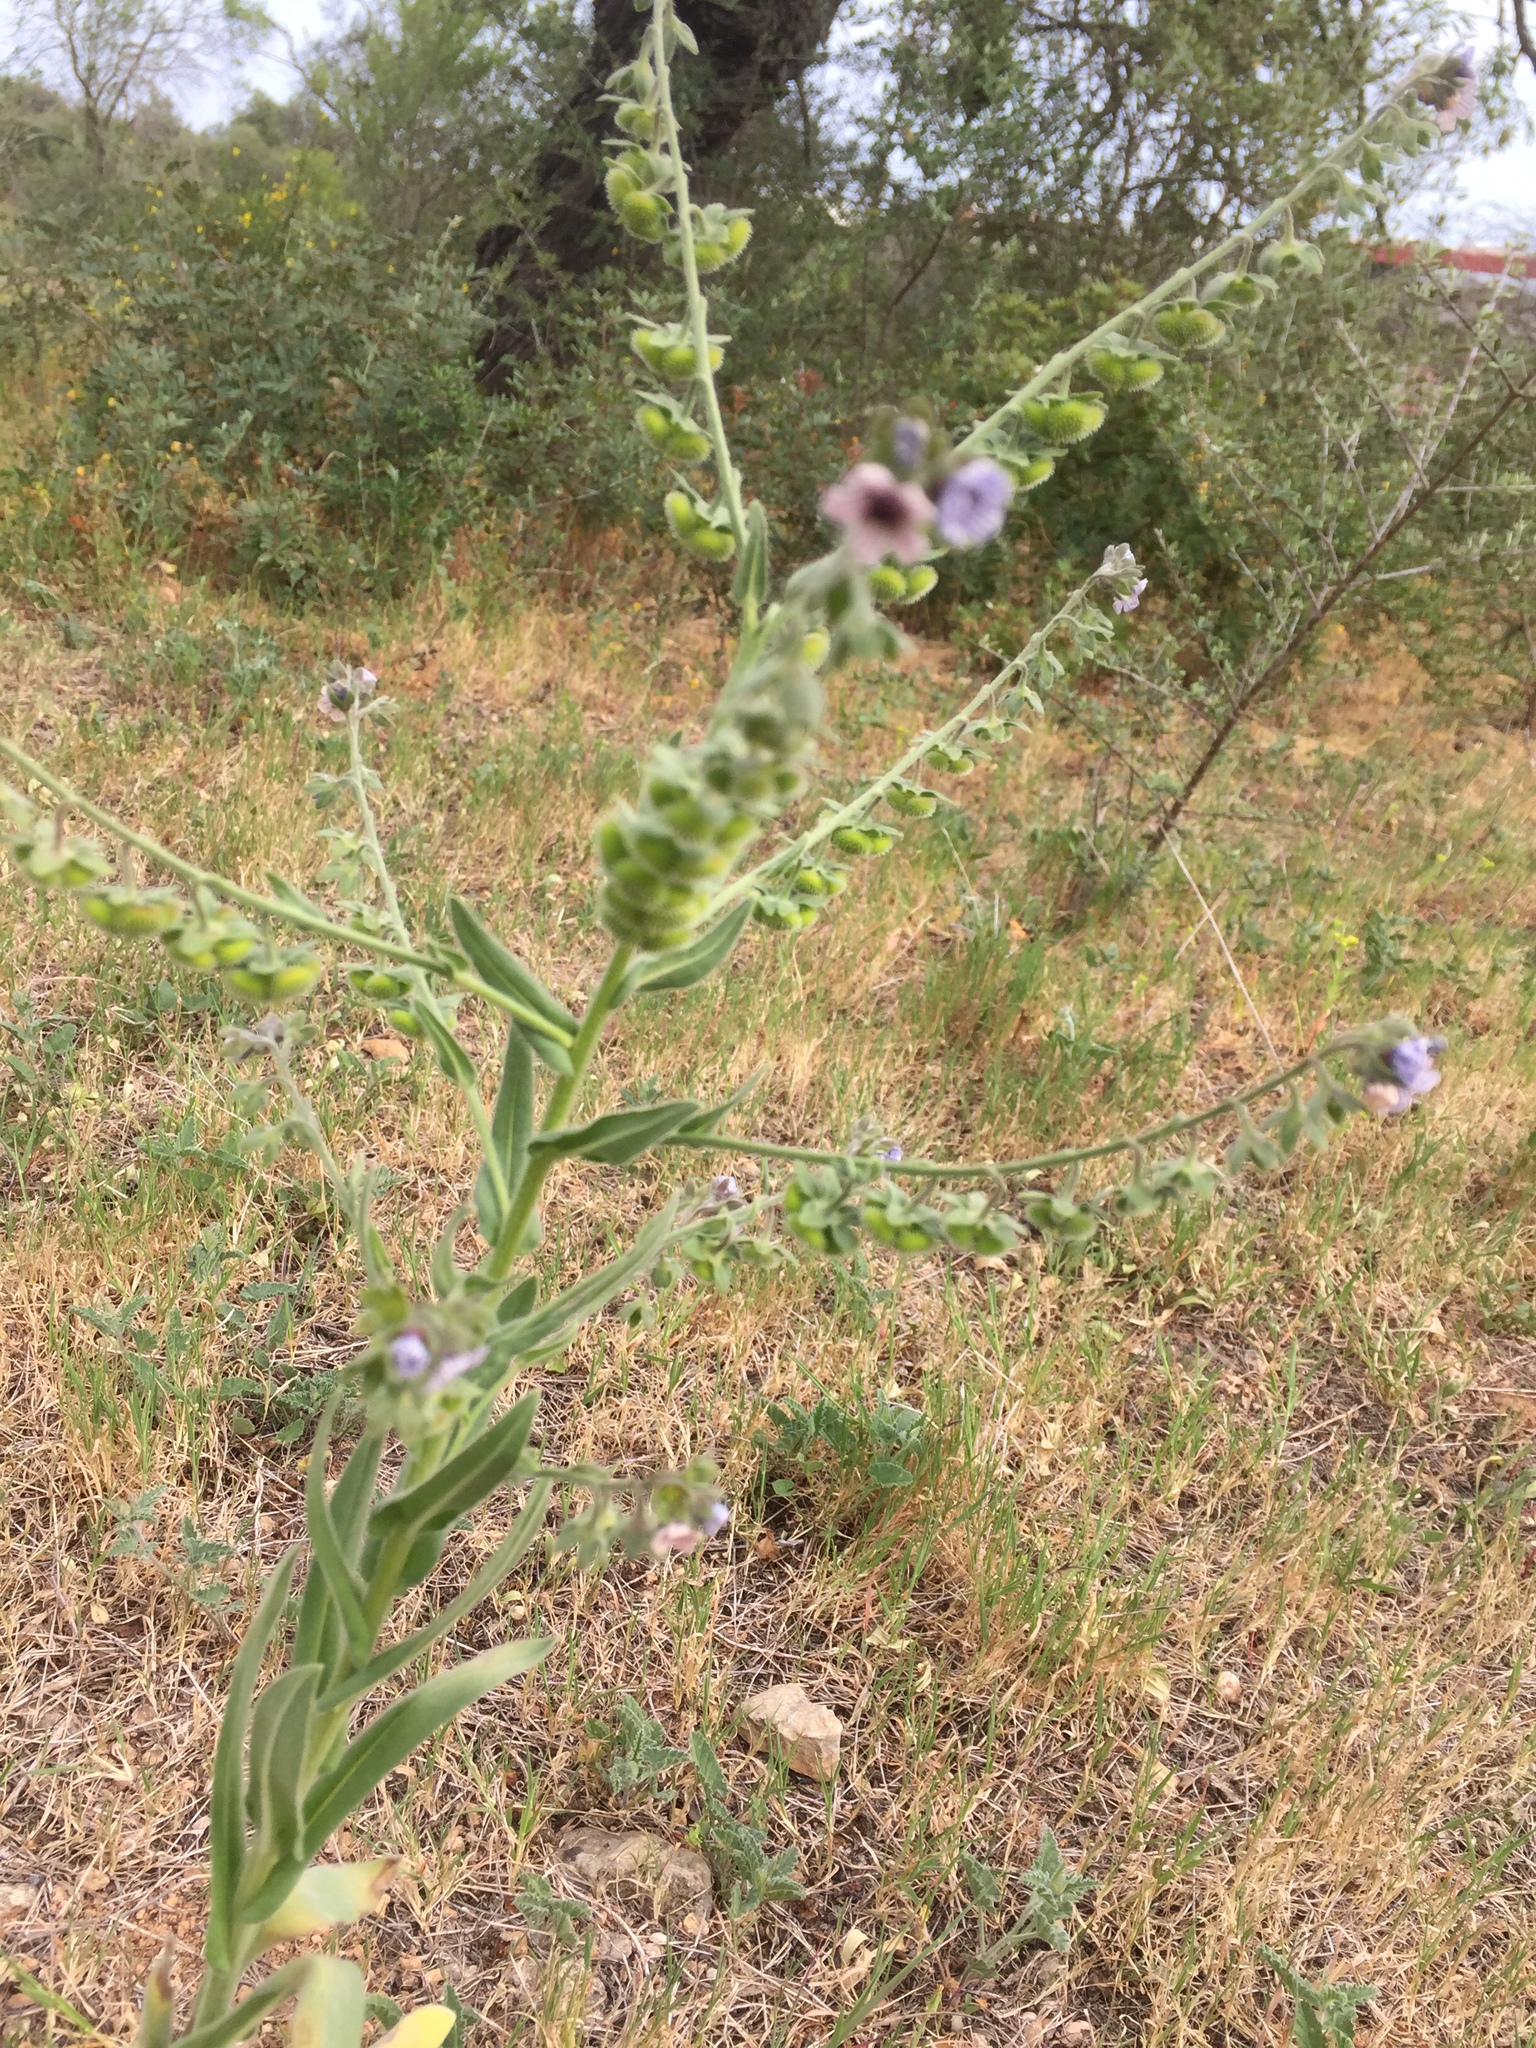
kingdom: Plantae
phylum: Tracheophyta
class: Magnoliopsida
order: Boraginales
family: Boraginaceae
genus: Cynoglossum
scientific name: Cynoglossum creticum
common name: Blue hound's tongue
